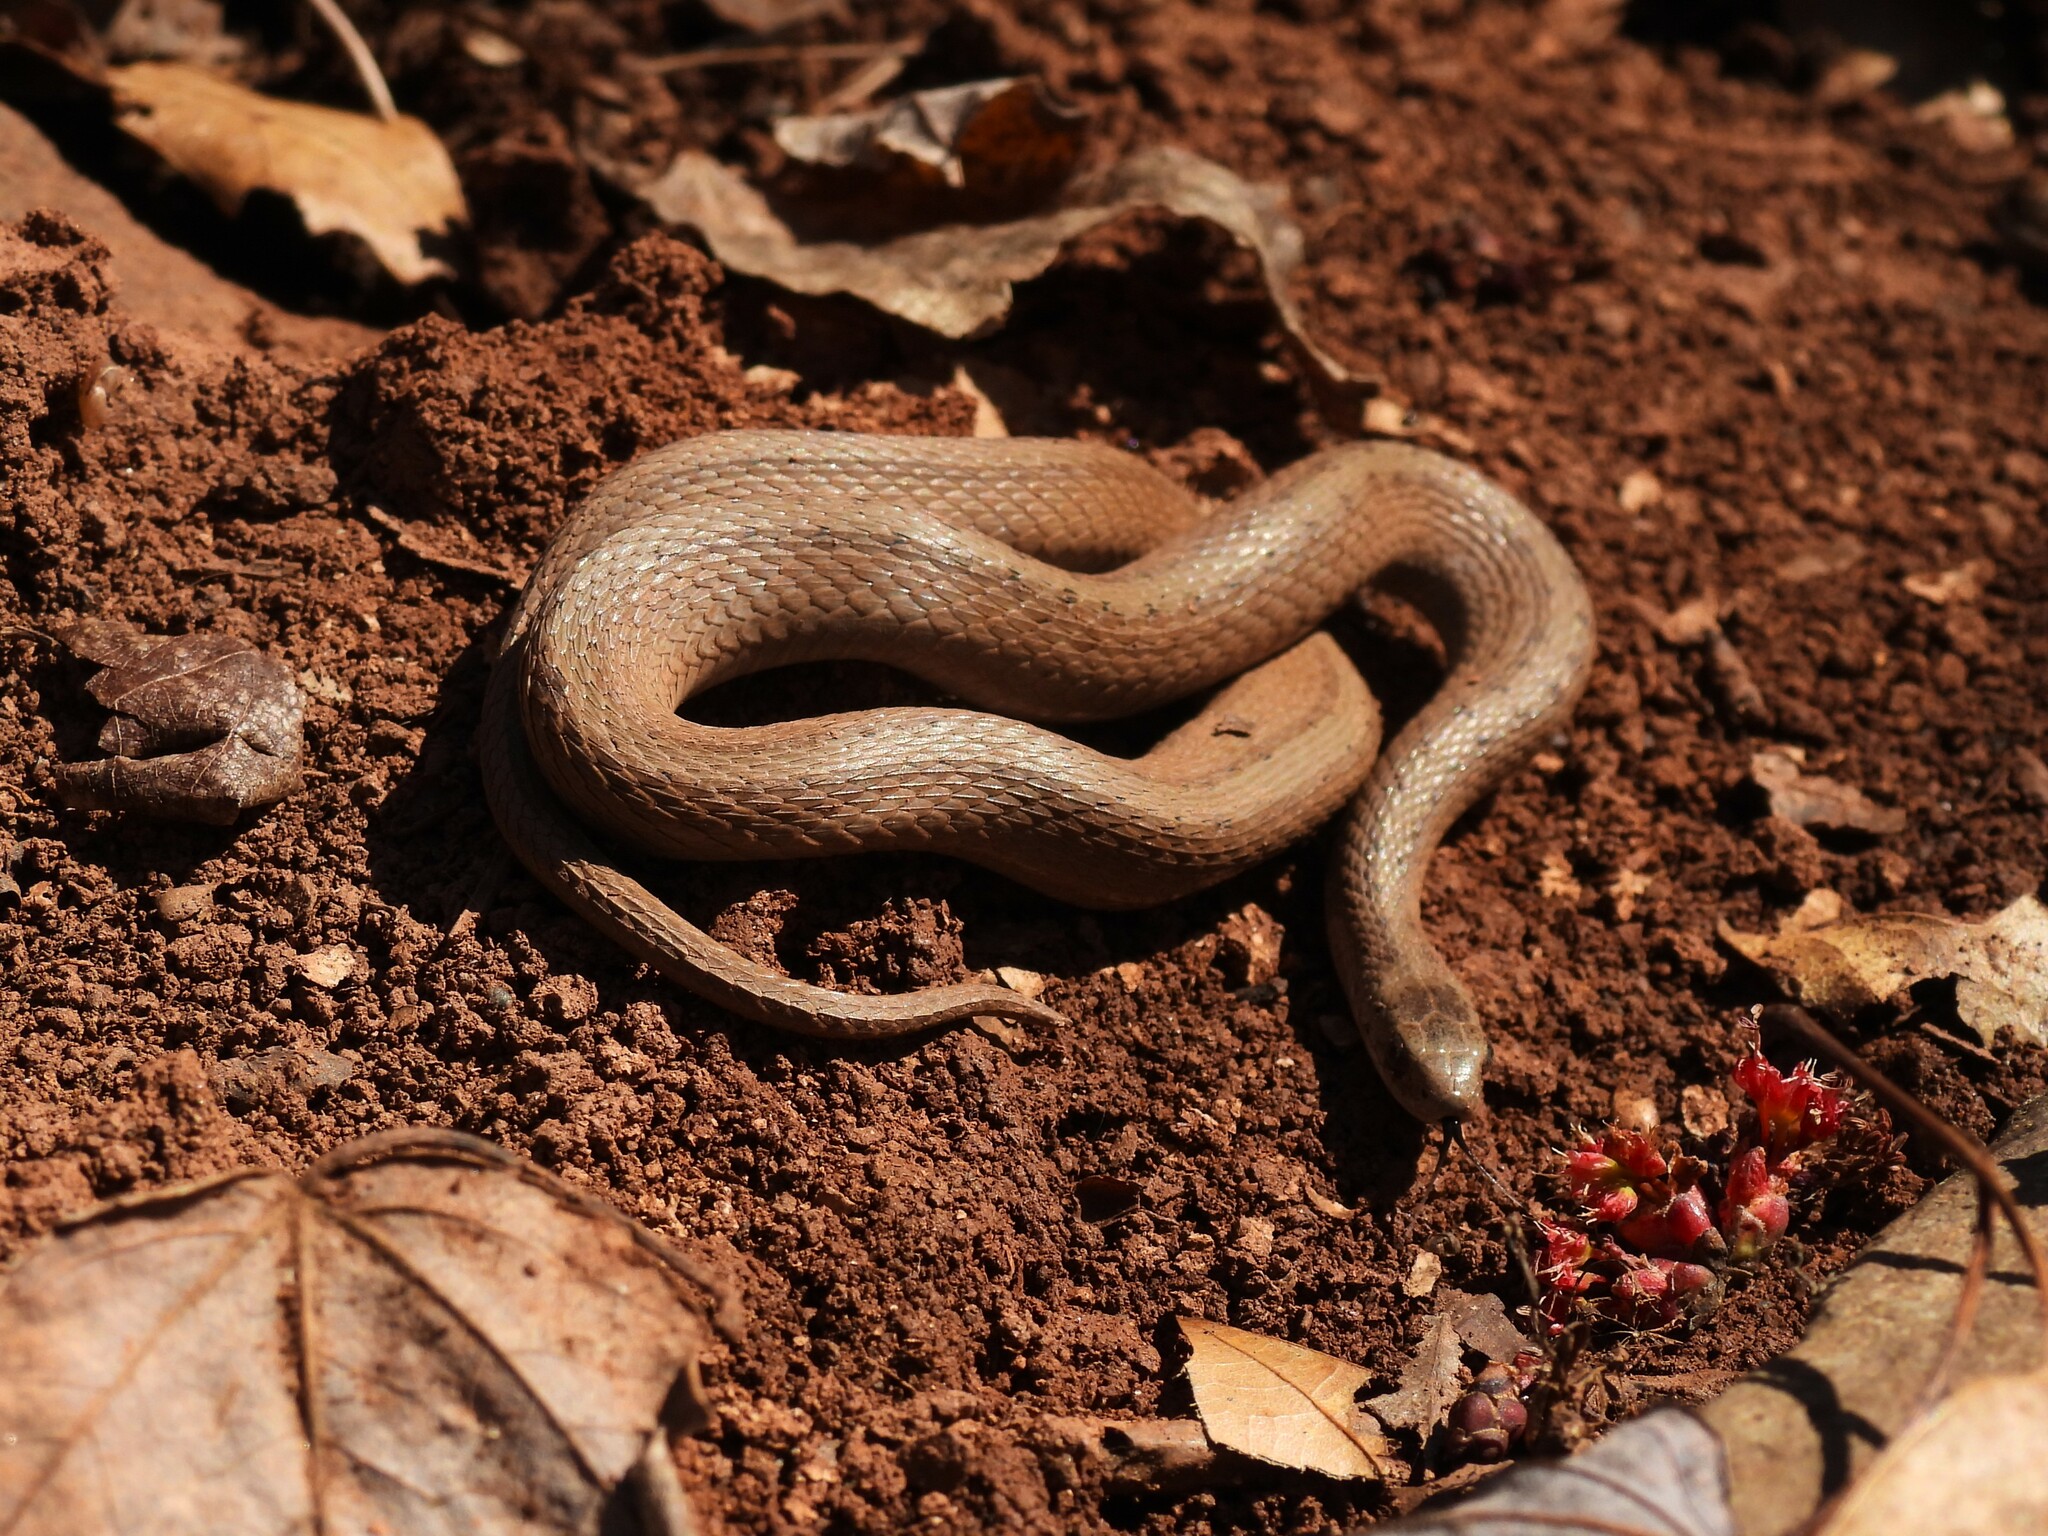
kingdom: Animalia
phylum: Chordata
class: Squamata
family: Colubridae
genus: Storeria
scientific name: Storeria dekayi
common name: (dekay’s) brown snake
